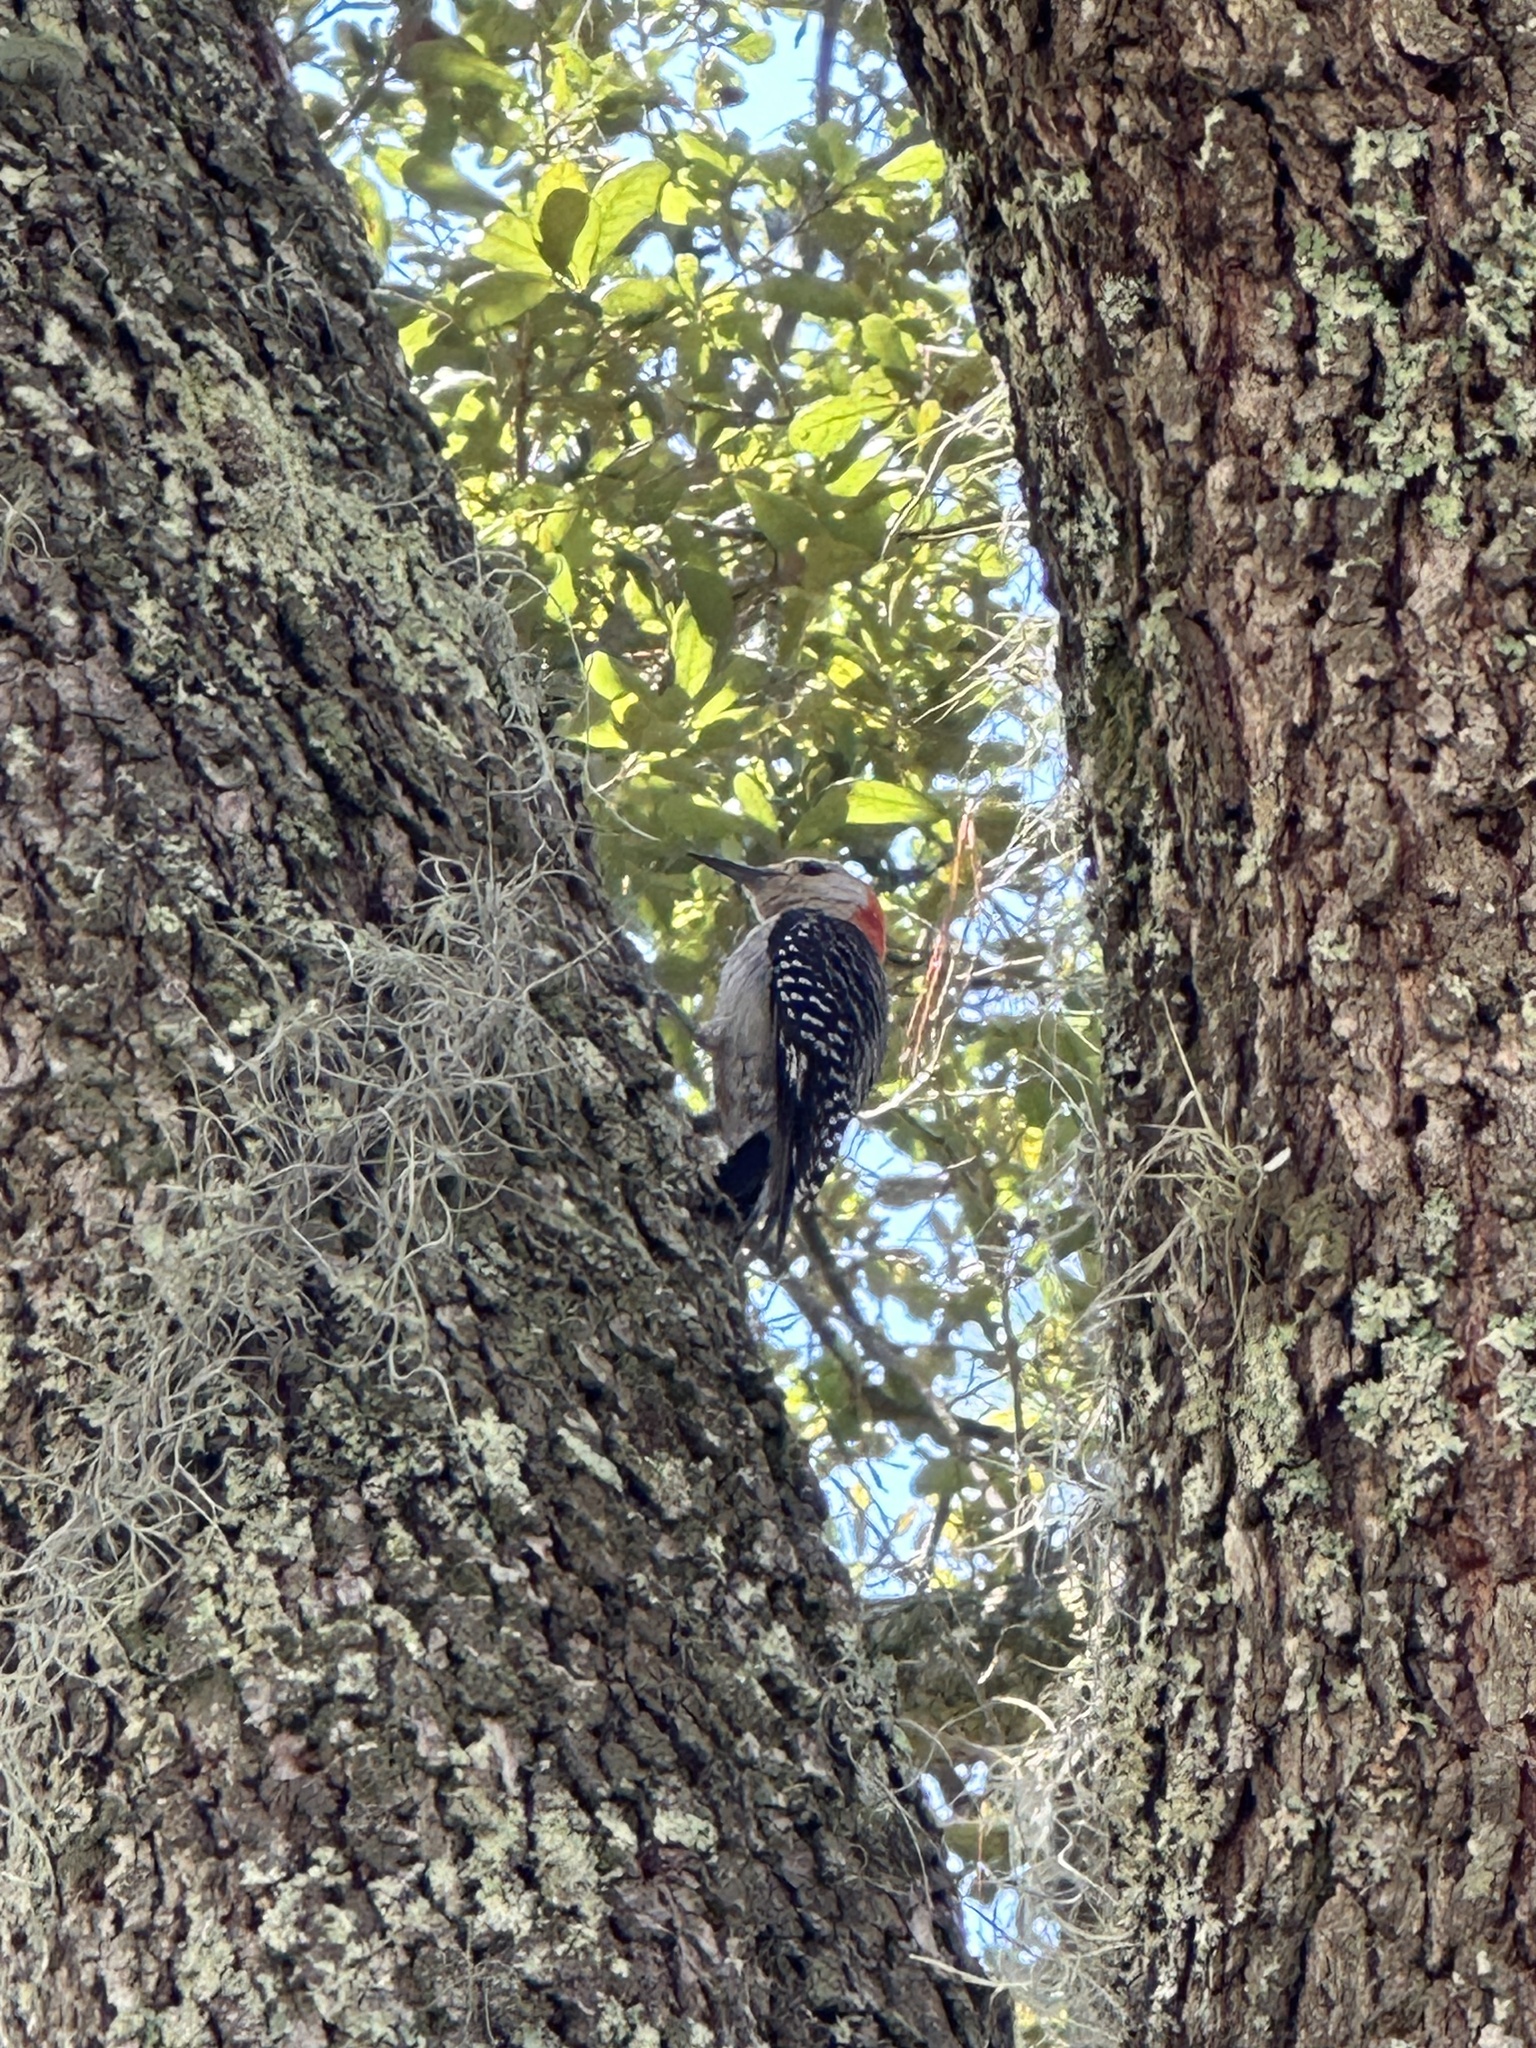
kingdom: Animalia
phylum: Chordata
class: Aves
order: Piciformes
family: Picidae
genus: Melanerpes
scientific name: Melanerpes carolinus
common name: Red-bellied woodpecker
